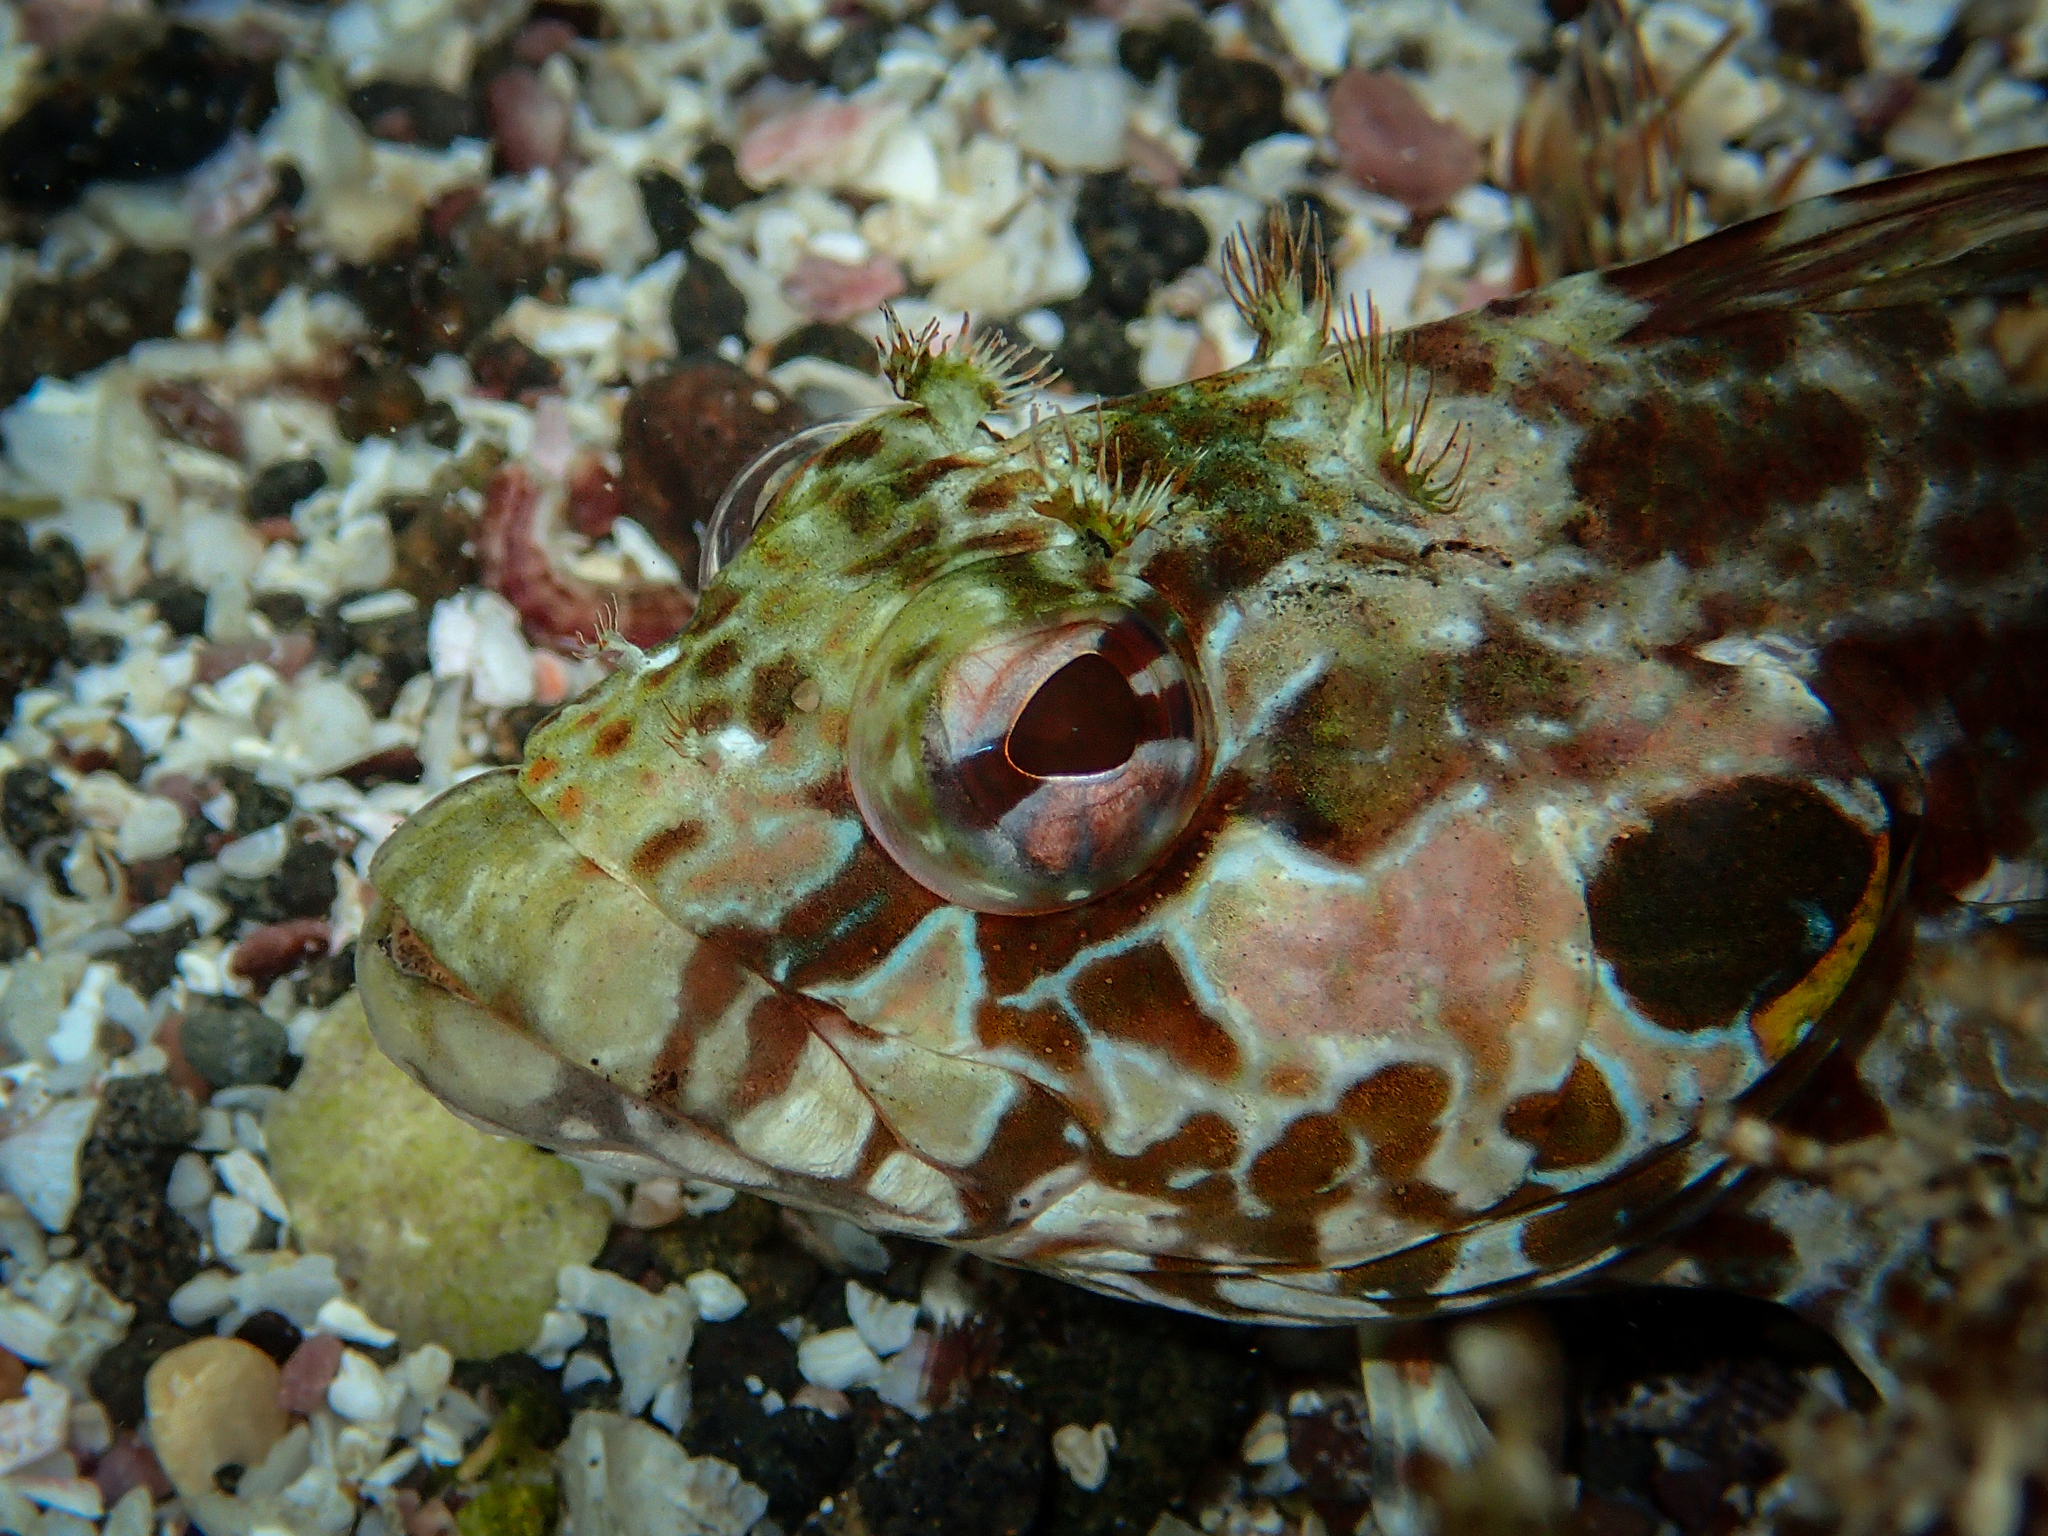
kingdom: Animalia
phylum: Chordata
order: Perciformes
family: Labrisomidae
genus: Gobioclinus
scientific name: Gobioclinus dendriticus
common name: Bravo clinid
